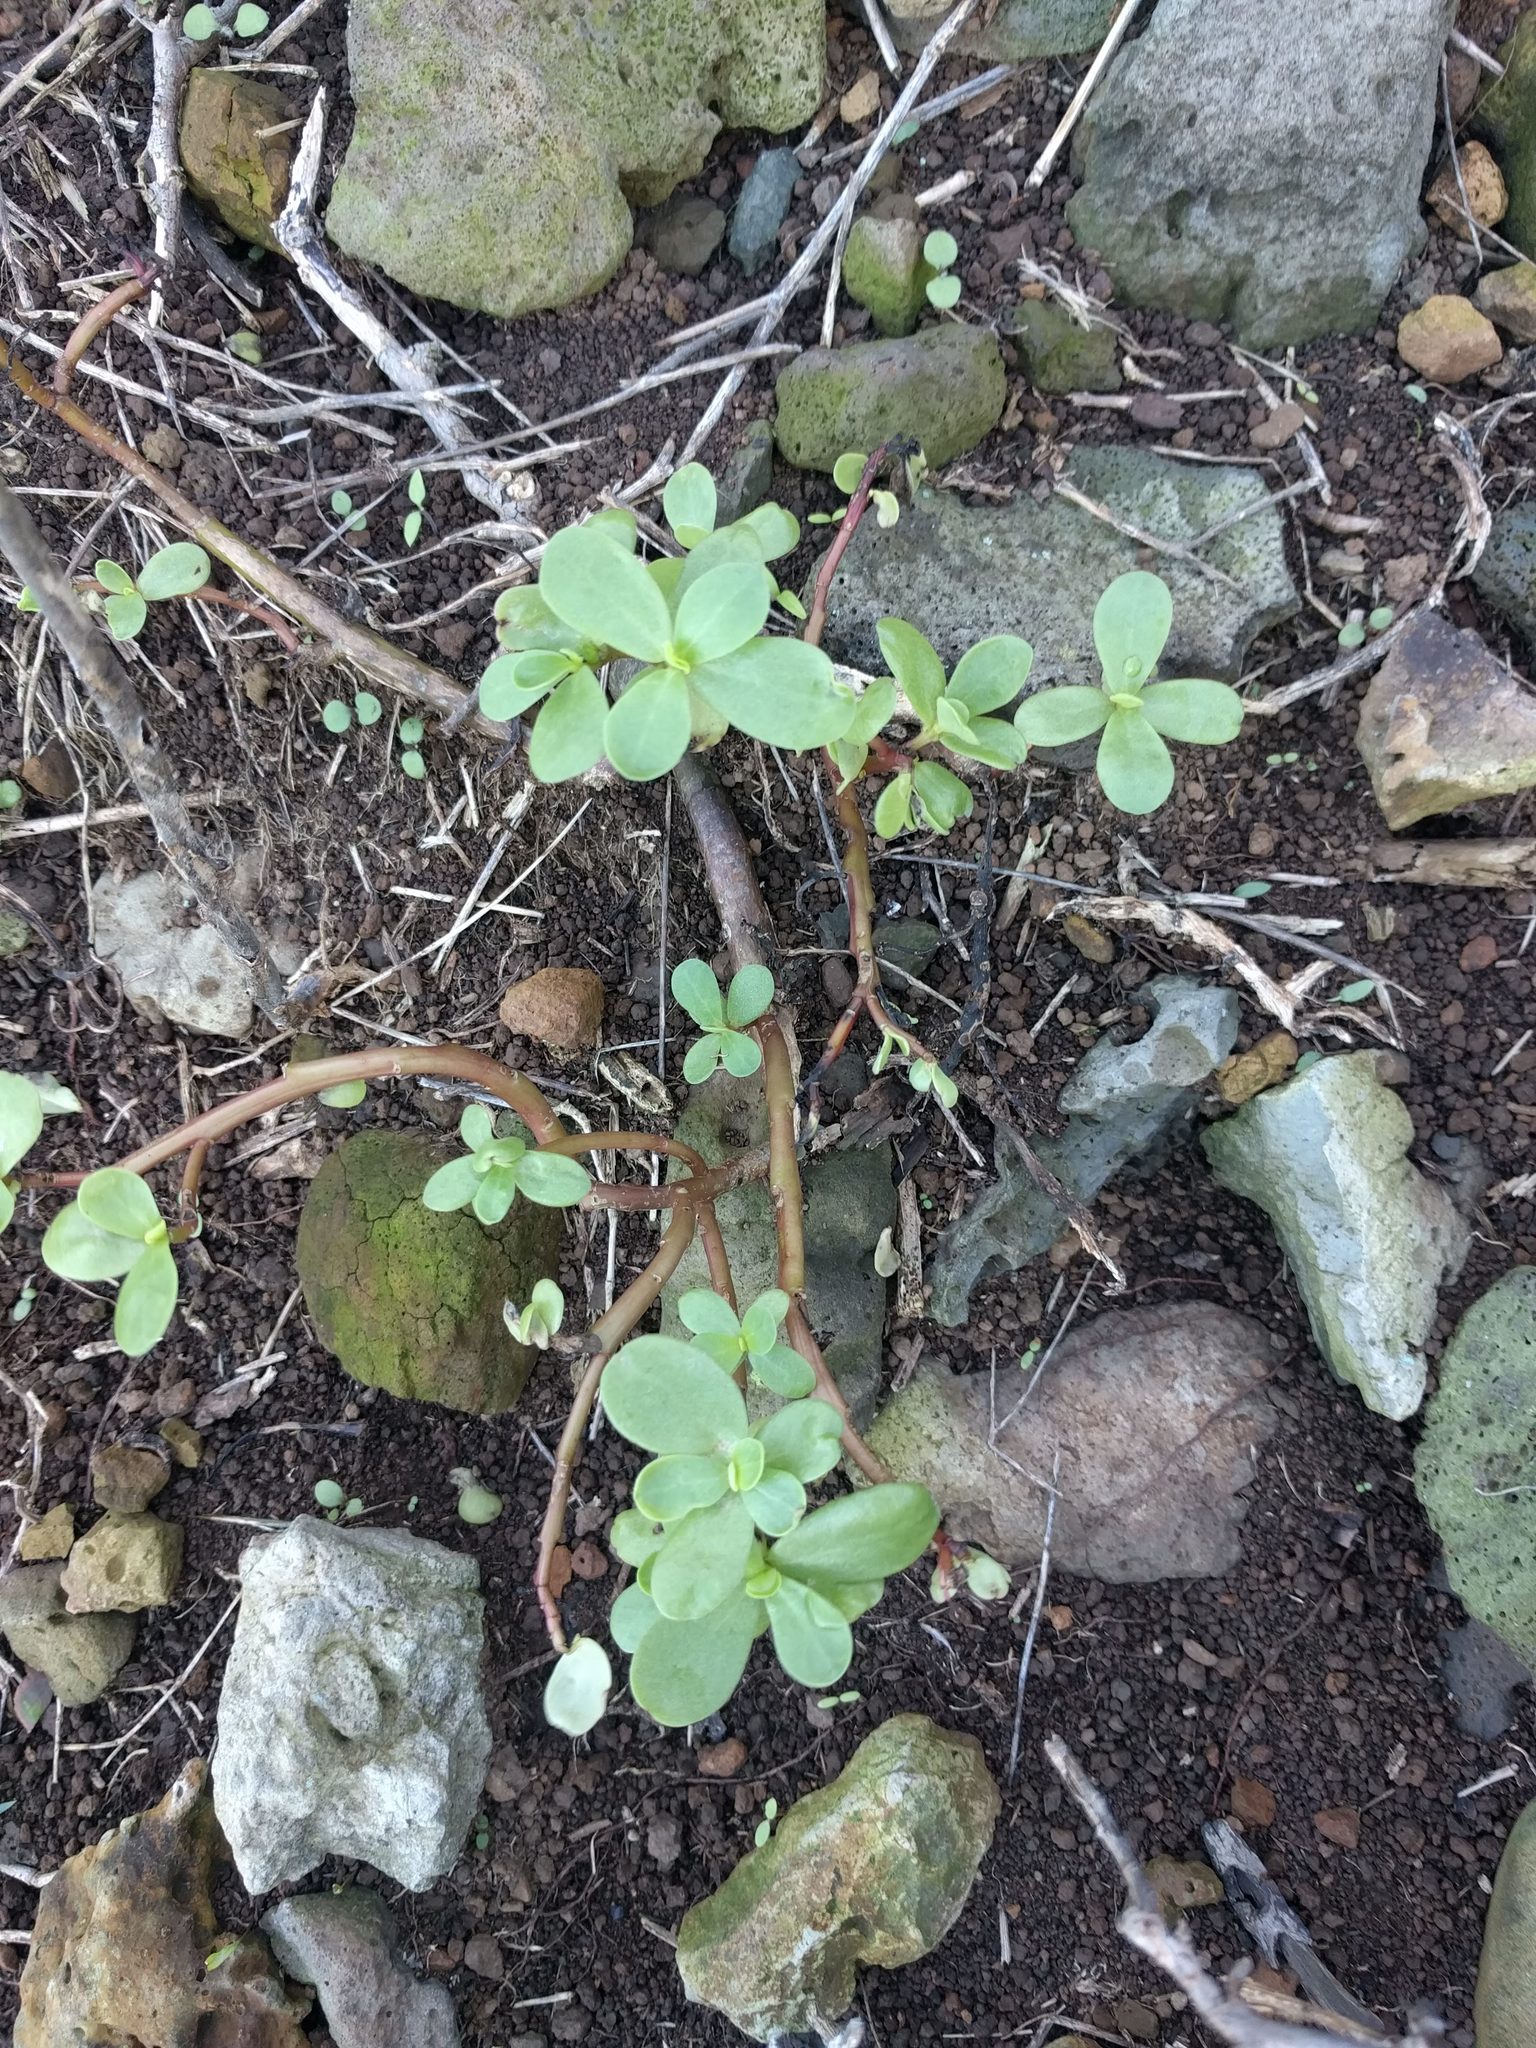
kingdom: Plantae
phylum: Tracheophyta
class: Magnoliopsida
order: Caryophyllales
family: Portulacaceae
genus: Portulaca
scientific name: Portulaca oleracea
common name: Common purslane
